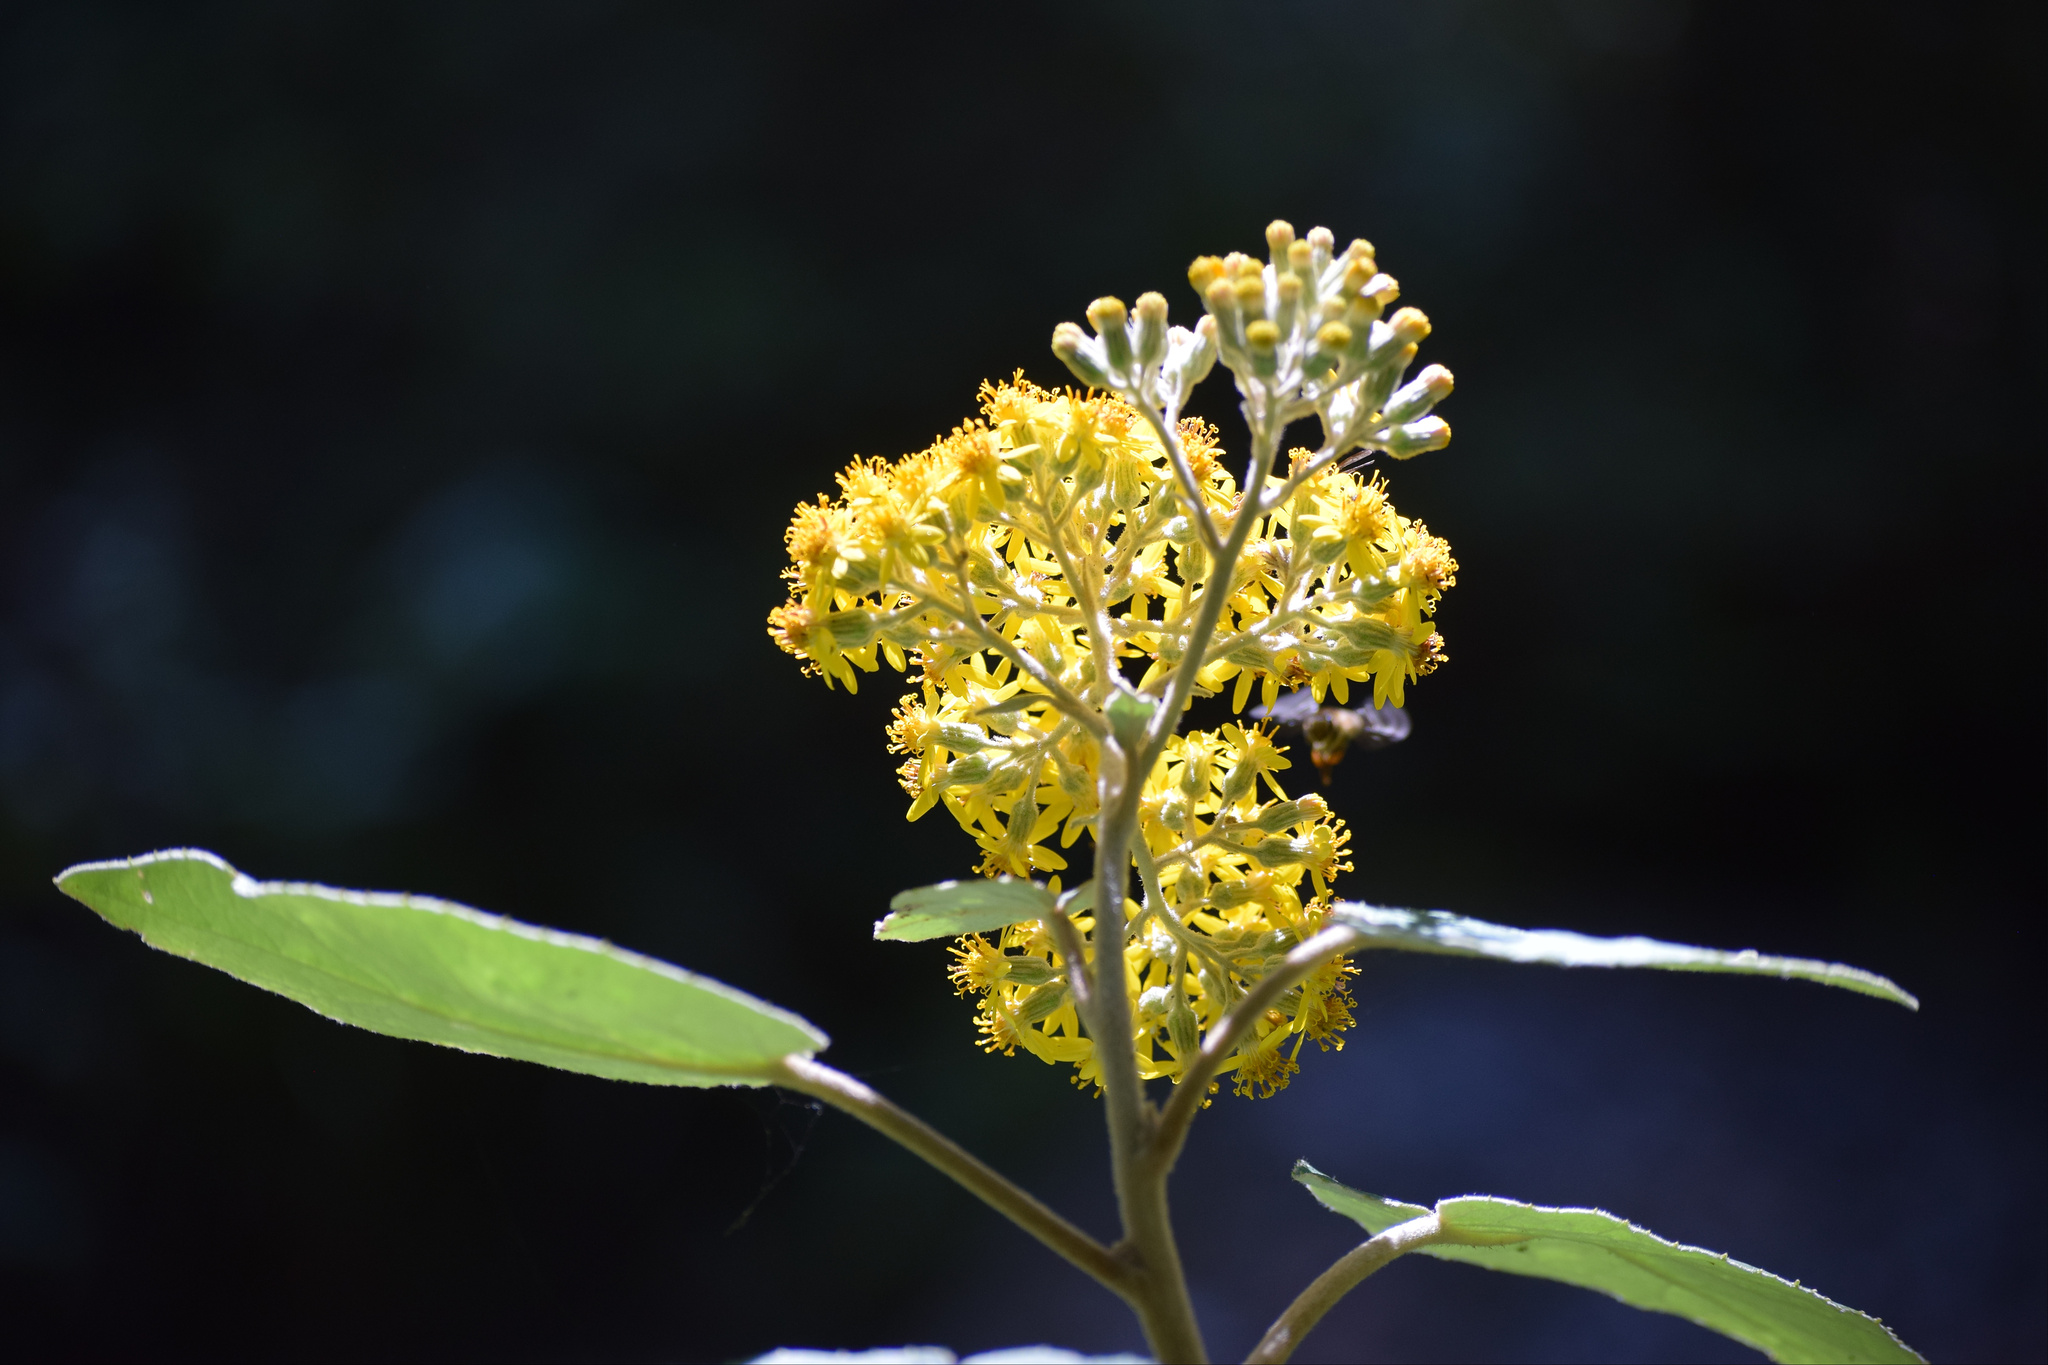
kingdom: Plantae
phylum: Tracheophyta
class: Magnoliopsida
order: Asterales
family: Asteraceae
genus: Roldana
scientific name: Roldana barba-johannis
